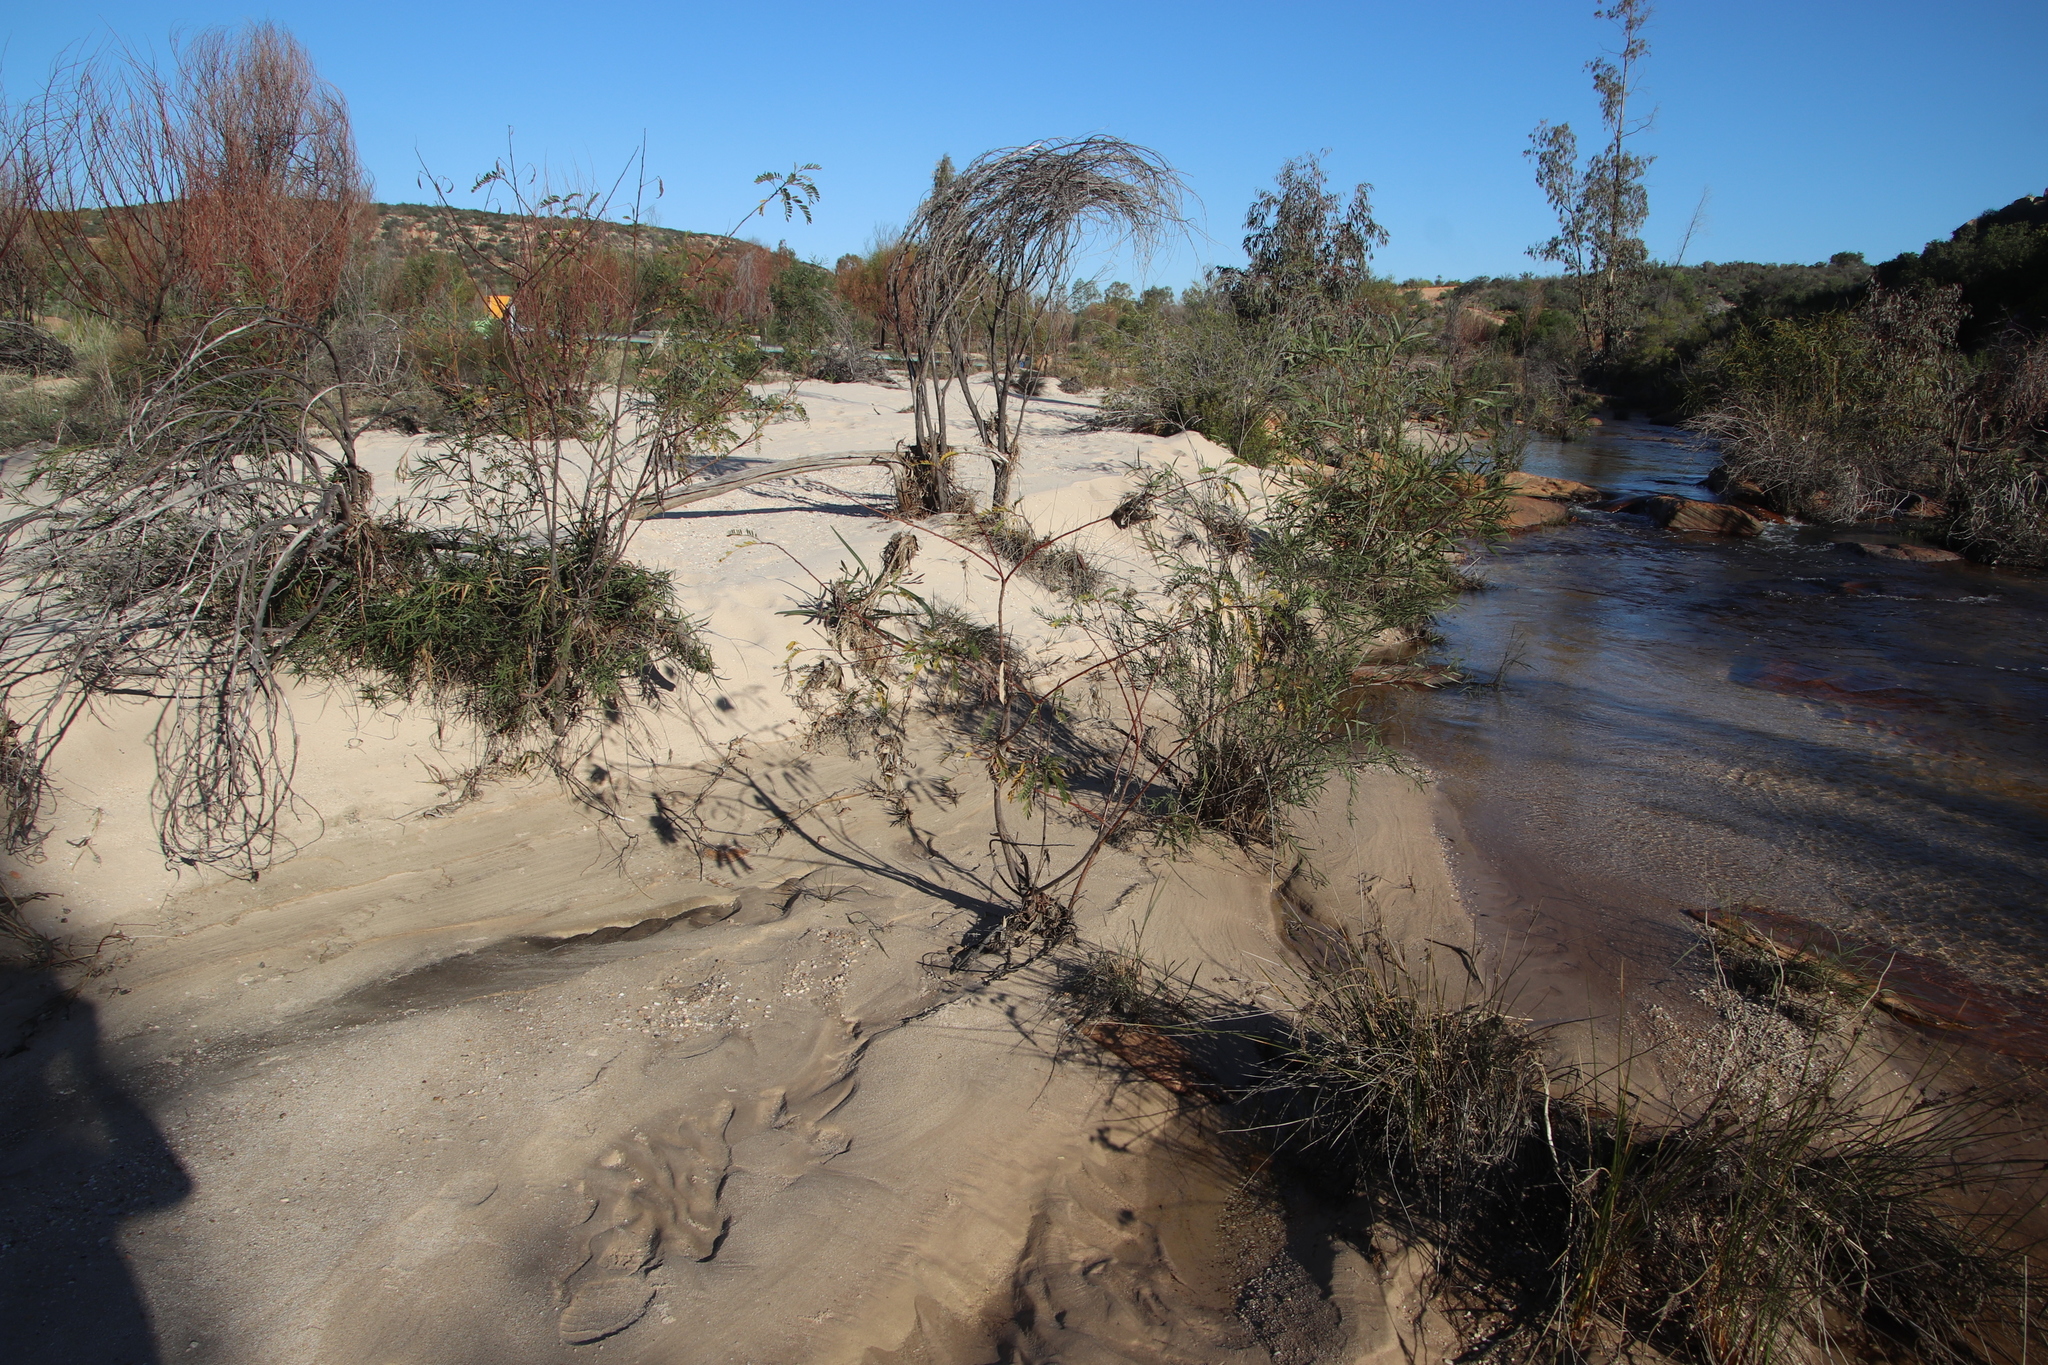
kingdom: Plantae
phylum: Tracheophyta
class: Magnoliopsida
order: Fabales
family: Fabaceae
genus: Sesbania
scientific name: Sesbania punicea
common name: Rattlebox
